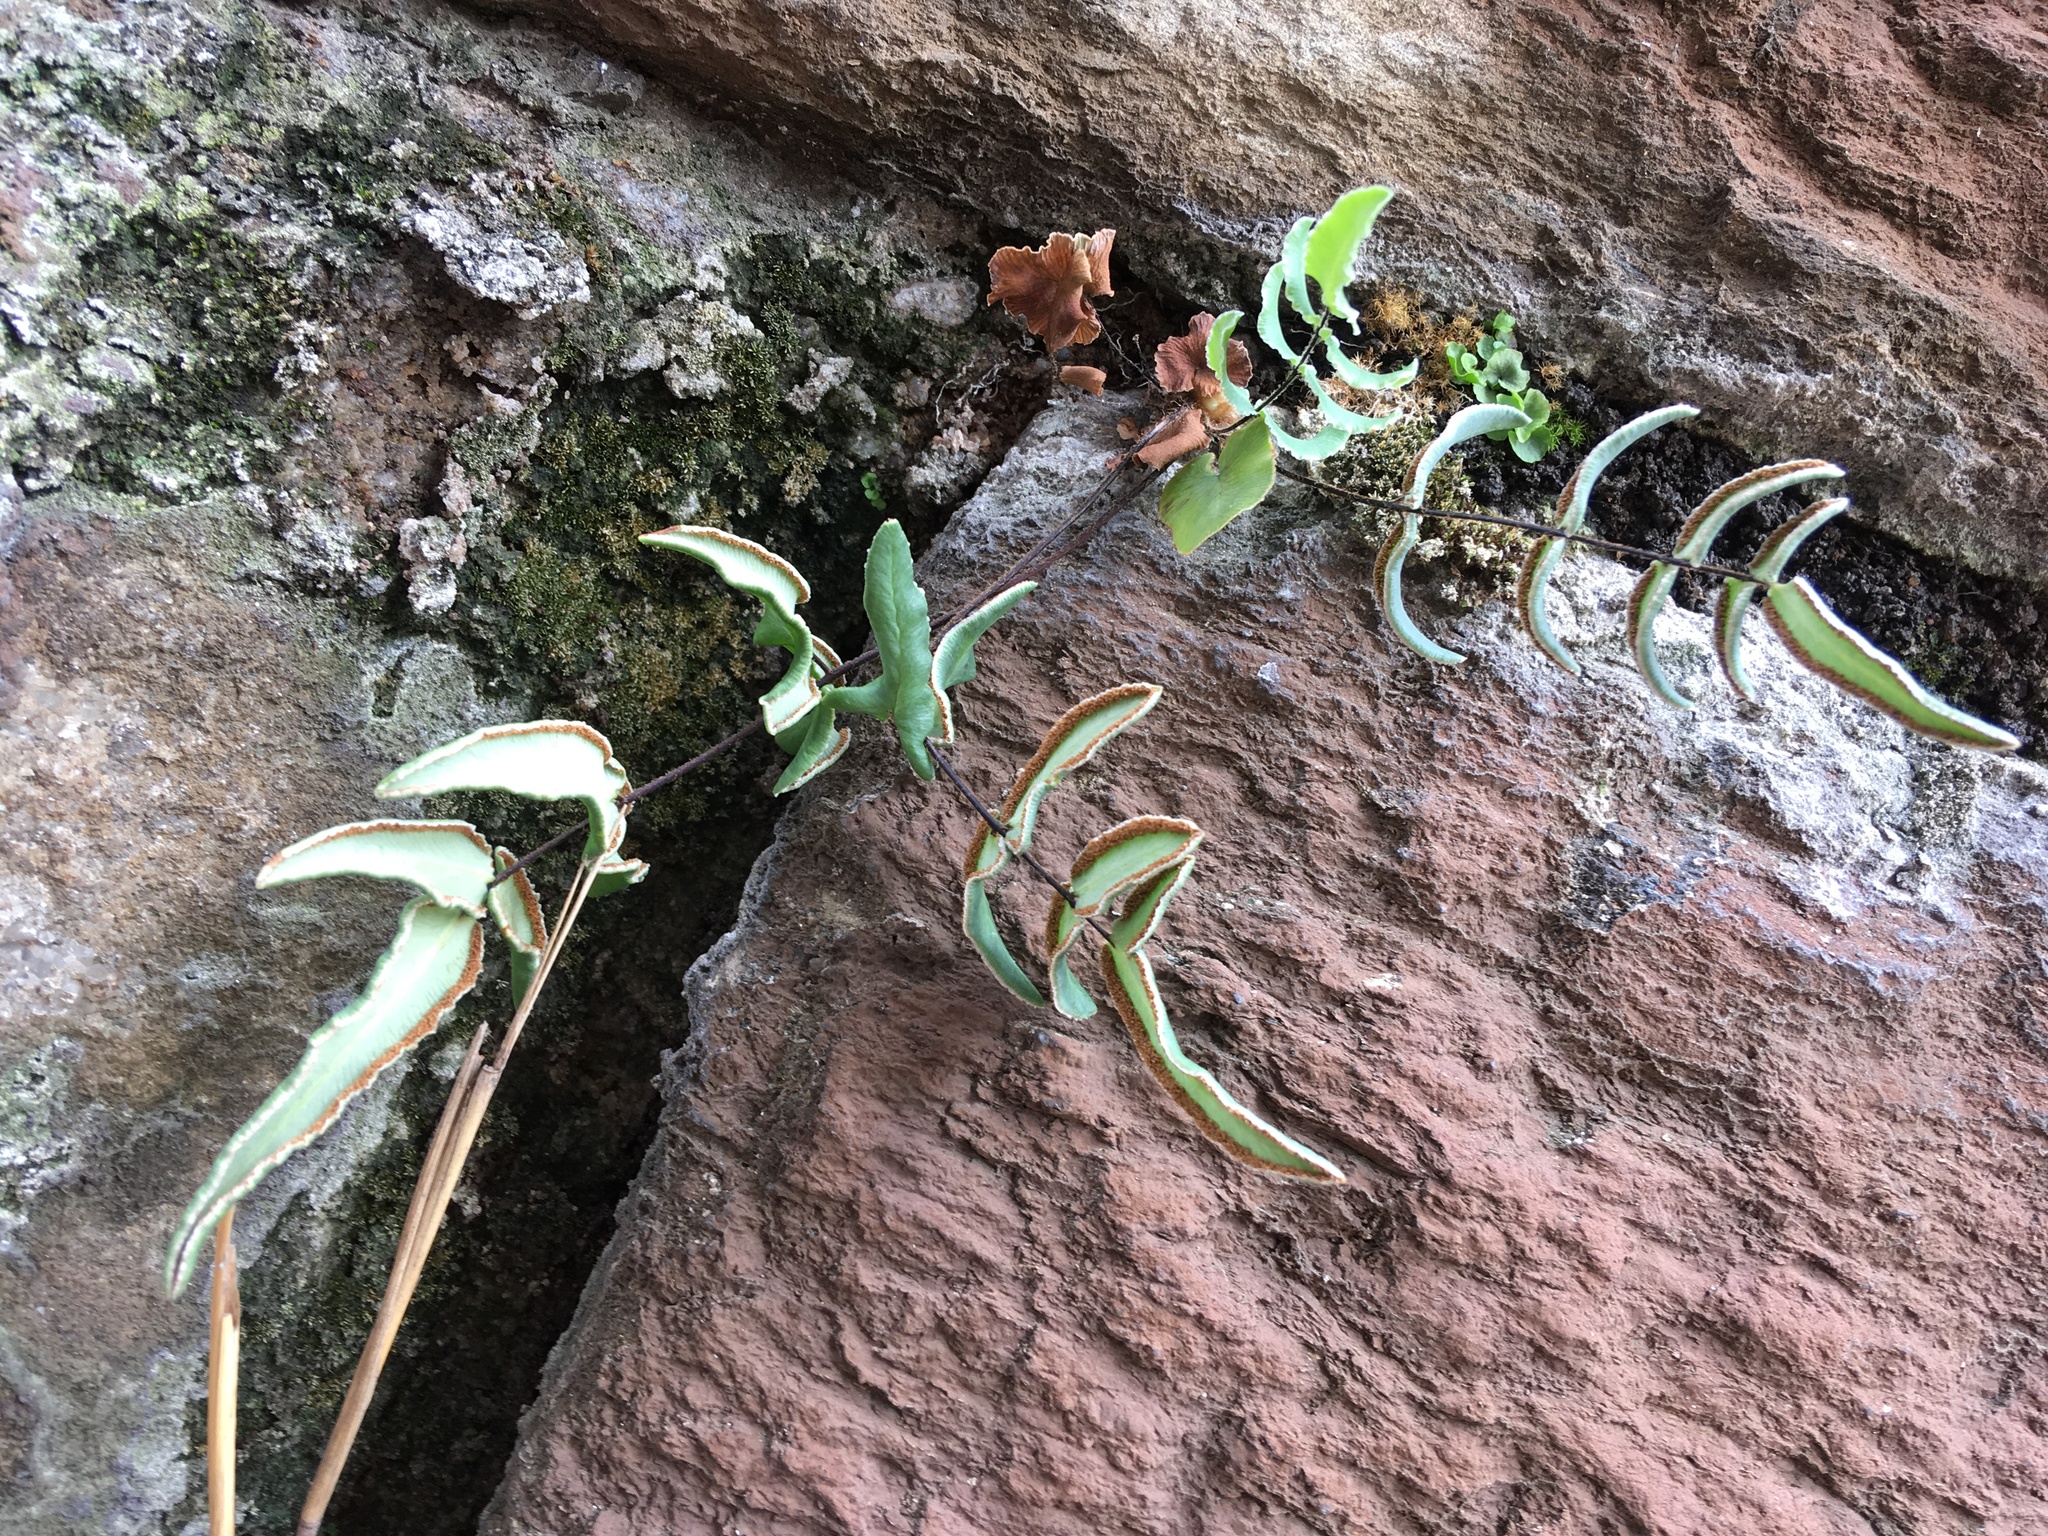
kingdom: Plantae
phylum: Tracheophyta
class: Polypodiopsida
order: Polypodiales
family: Pteridaceae
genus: Pellaea
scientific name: Pellaea atropurpurea
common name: Hairy cliffbrake
